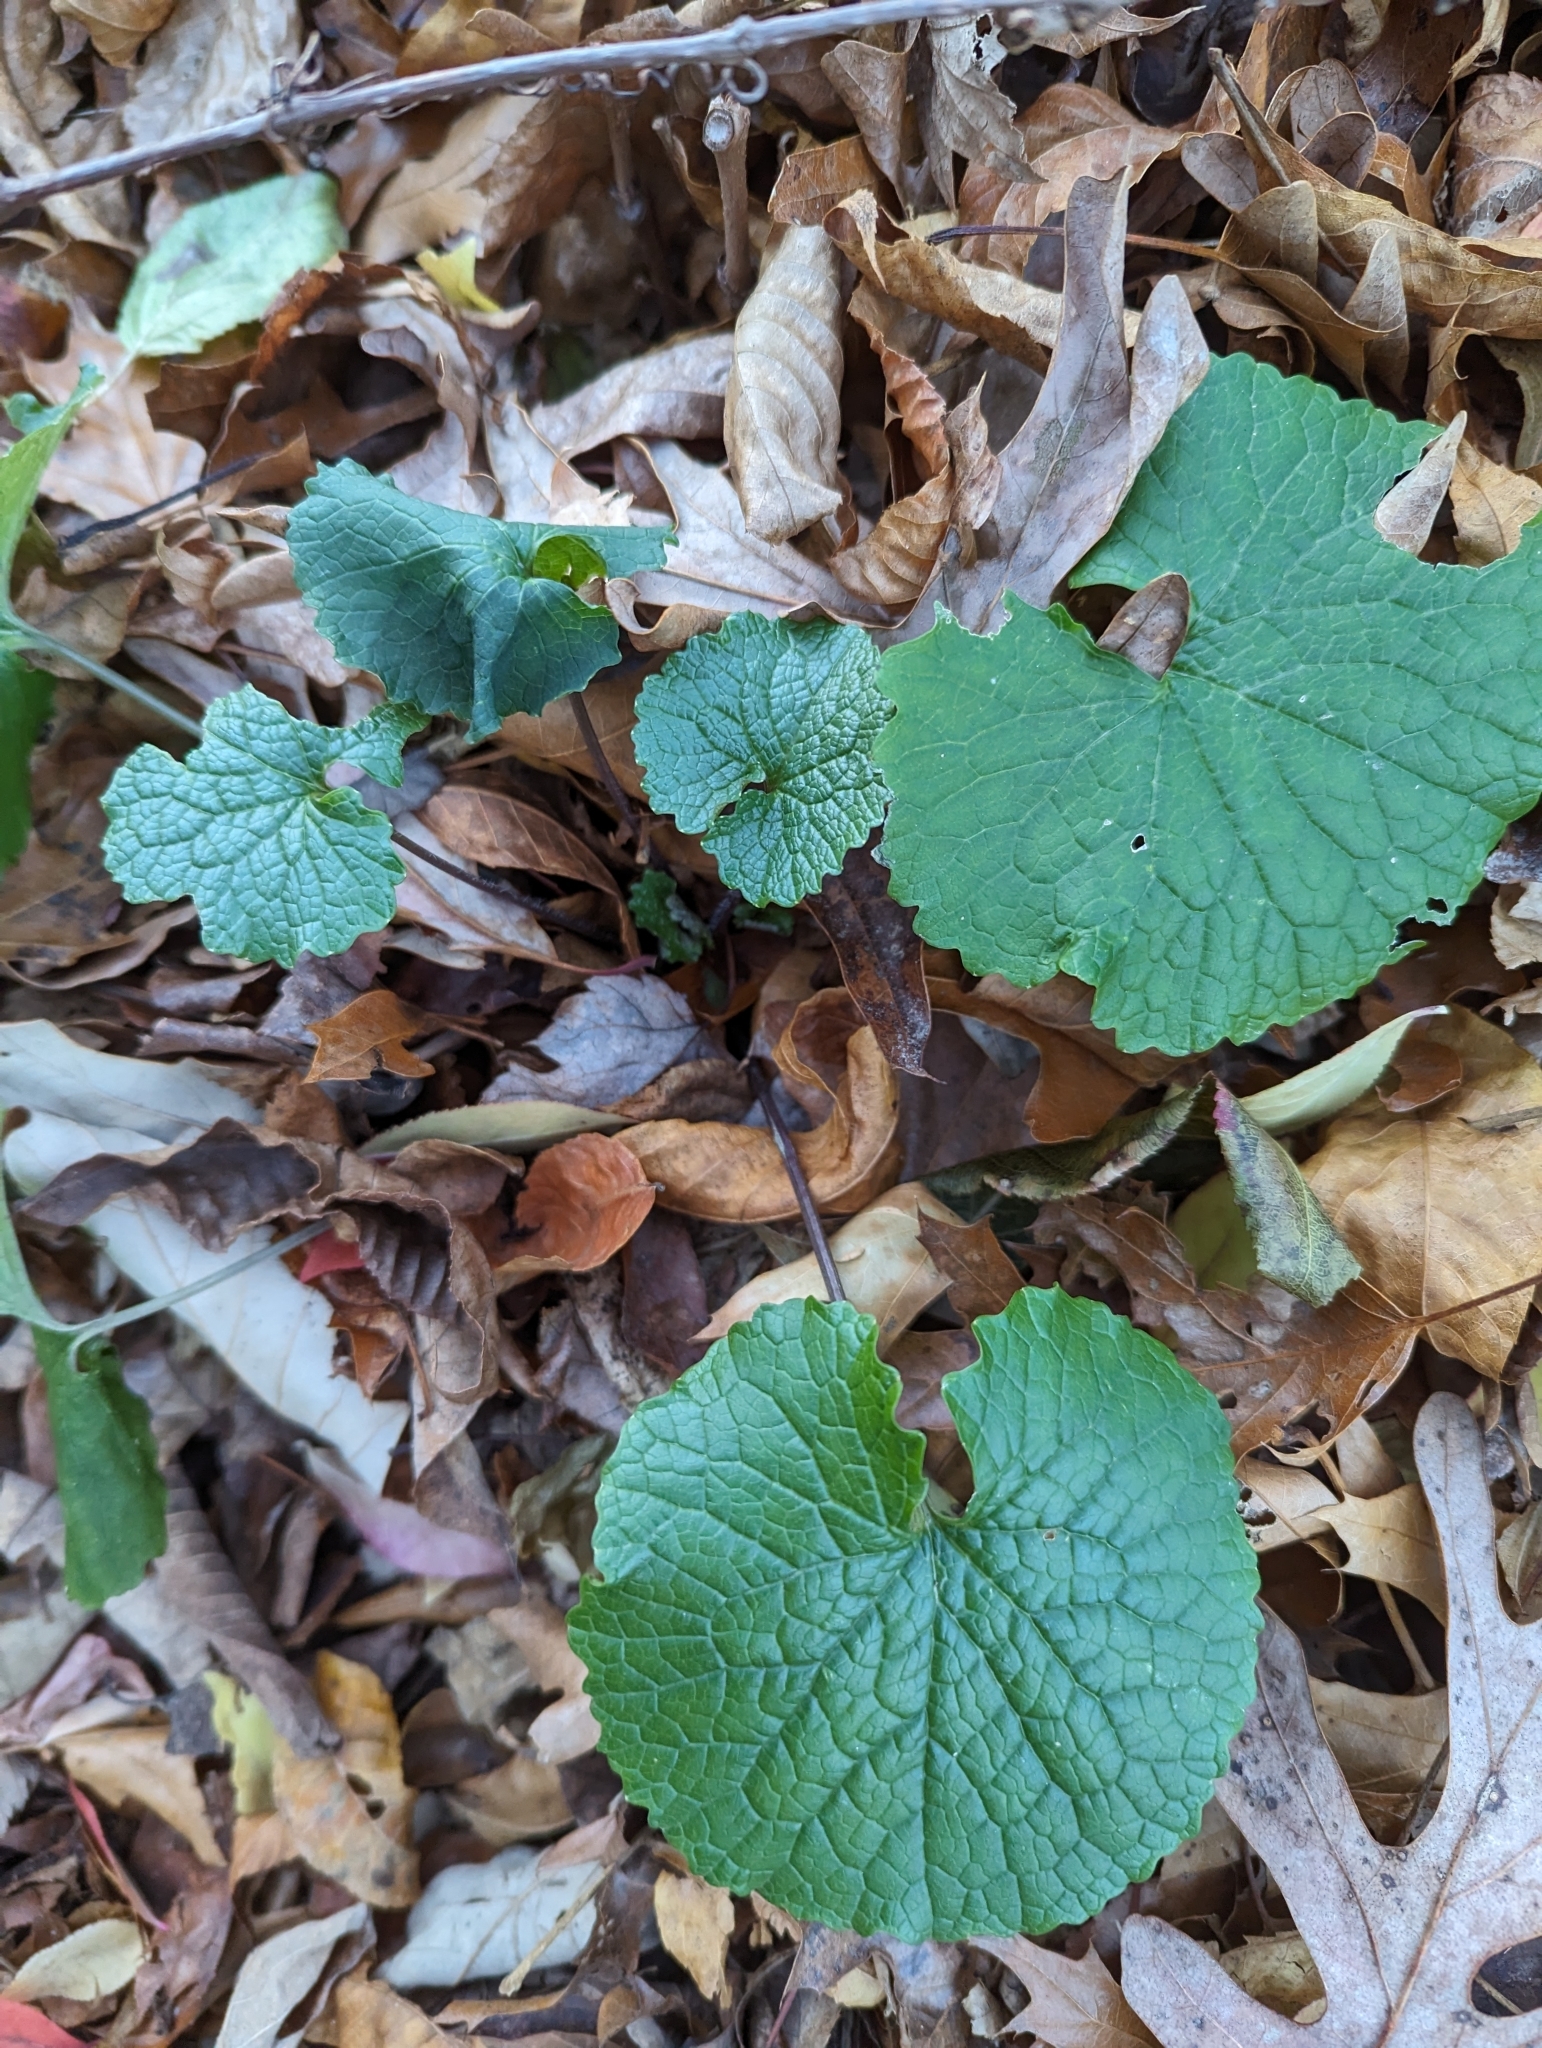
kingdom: Plantae
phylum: Tracheophyta
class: Magnoliopsida
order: Brassicales
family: Brassicaceae
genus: Alliaria
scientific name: Alliaria petiolata
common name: Garlic mustard
